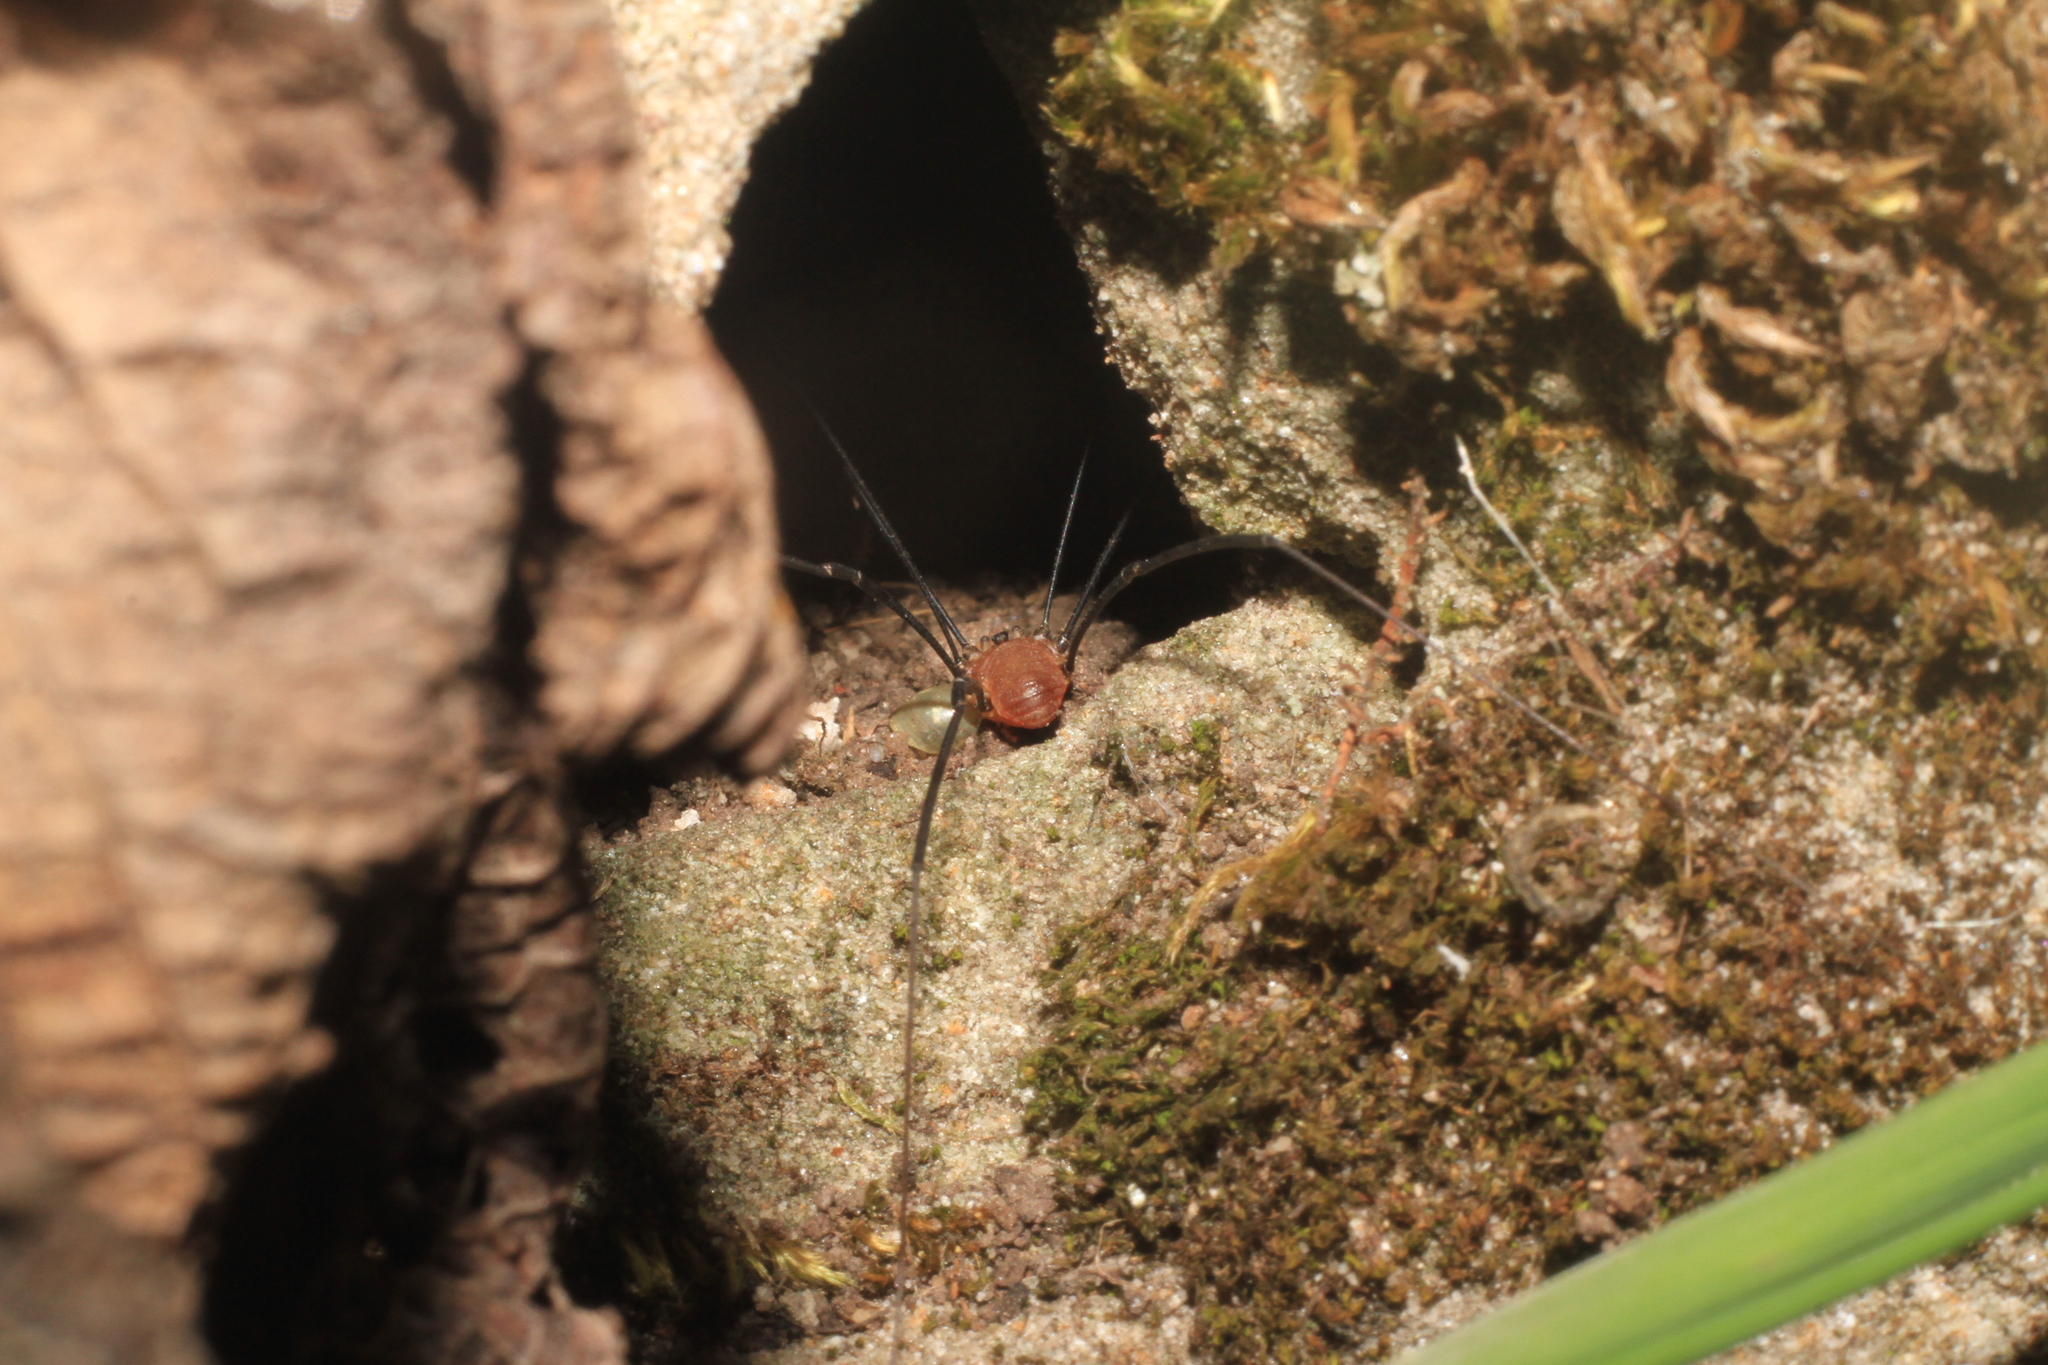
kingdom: Animalia
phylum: Arthropoda
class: Arachnida
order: Opiliones
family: Sclerosomatidae
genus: Leiobunum
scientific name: Leiobunum rotundum
